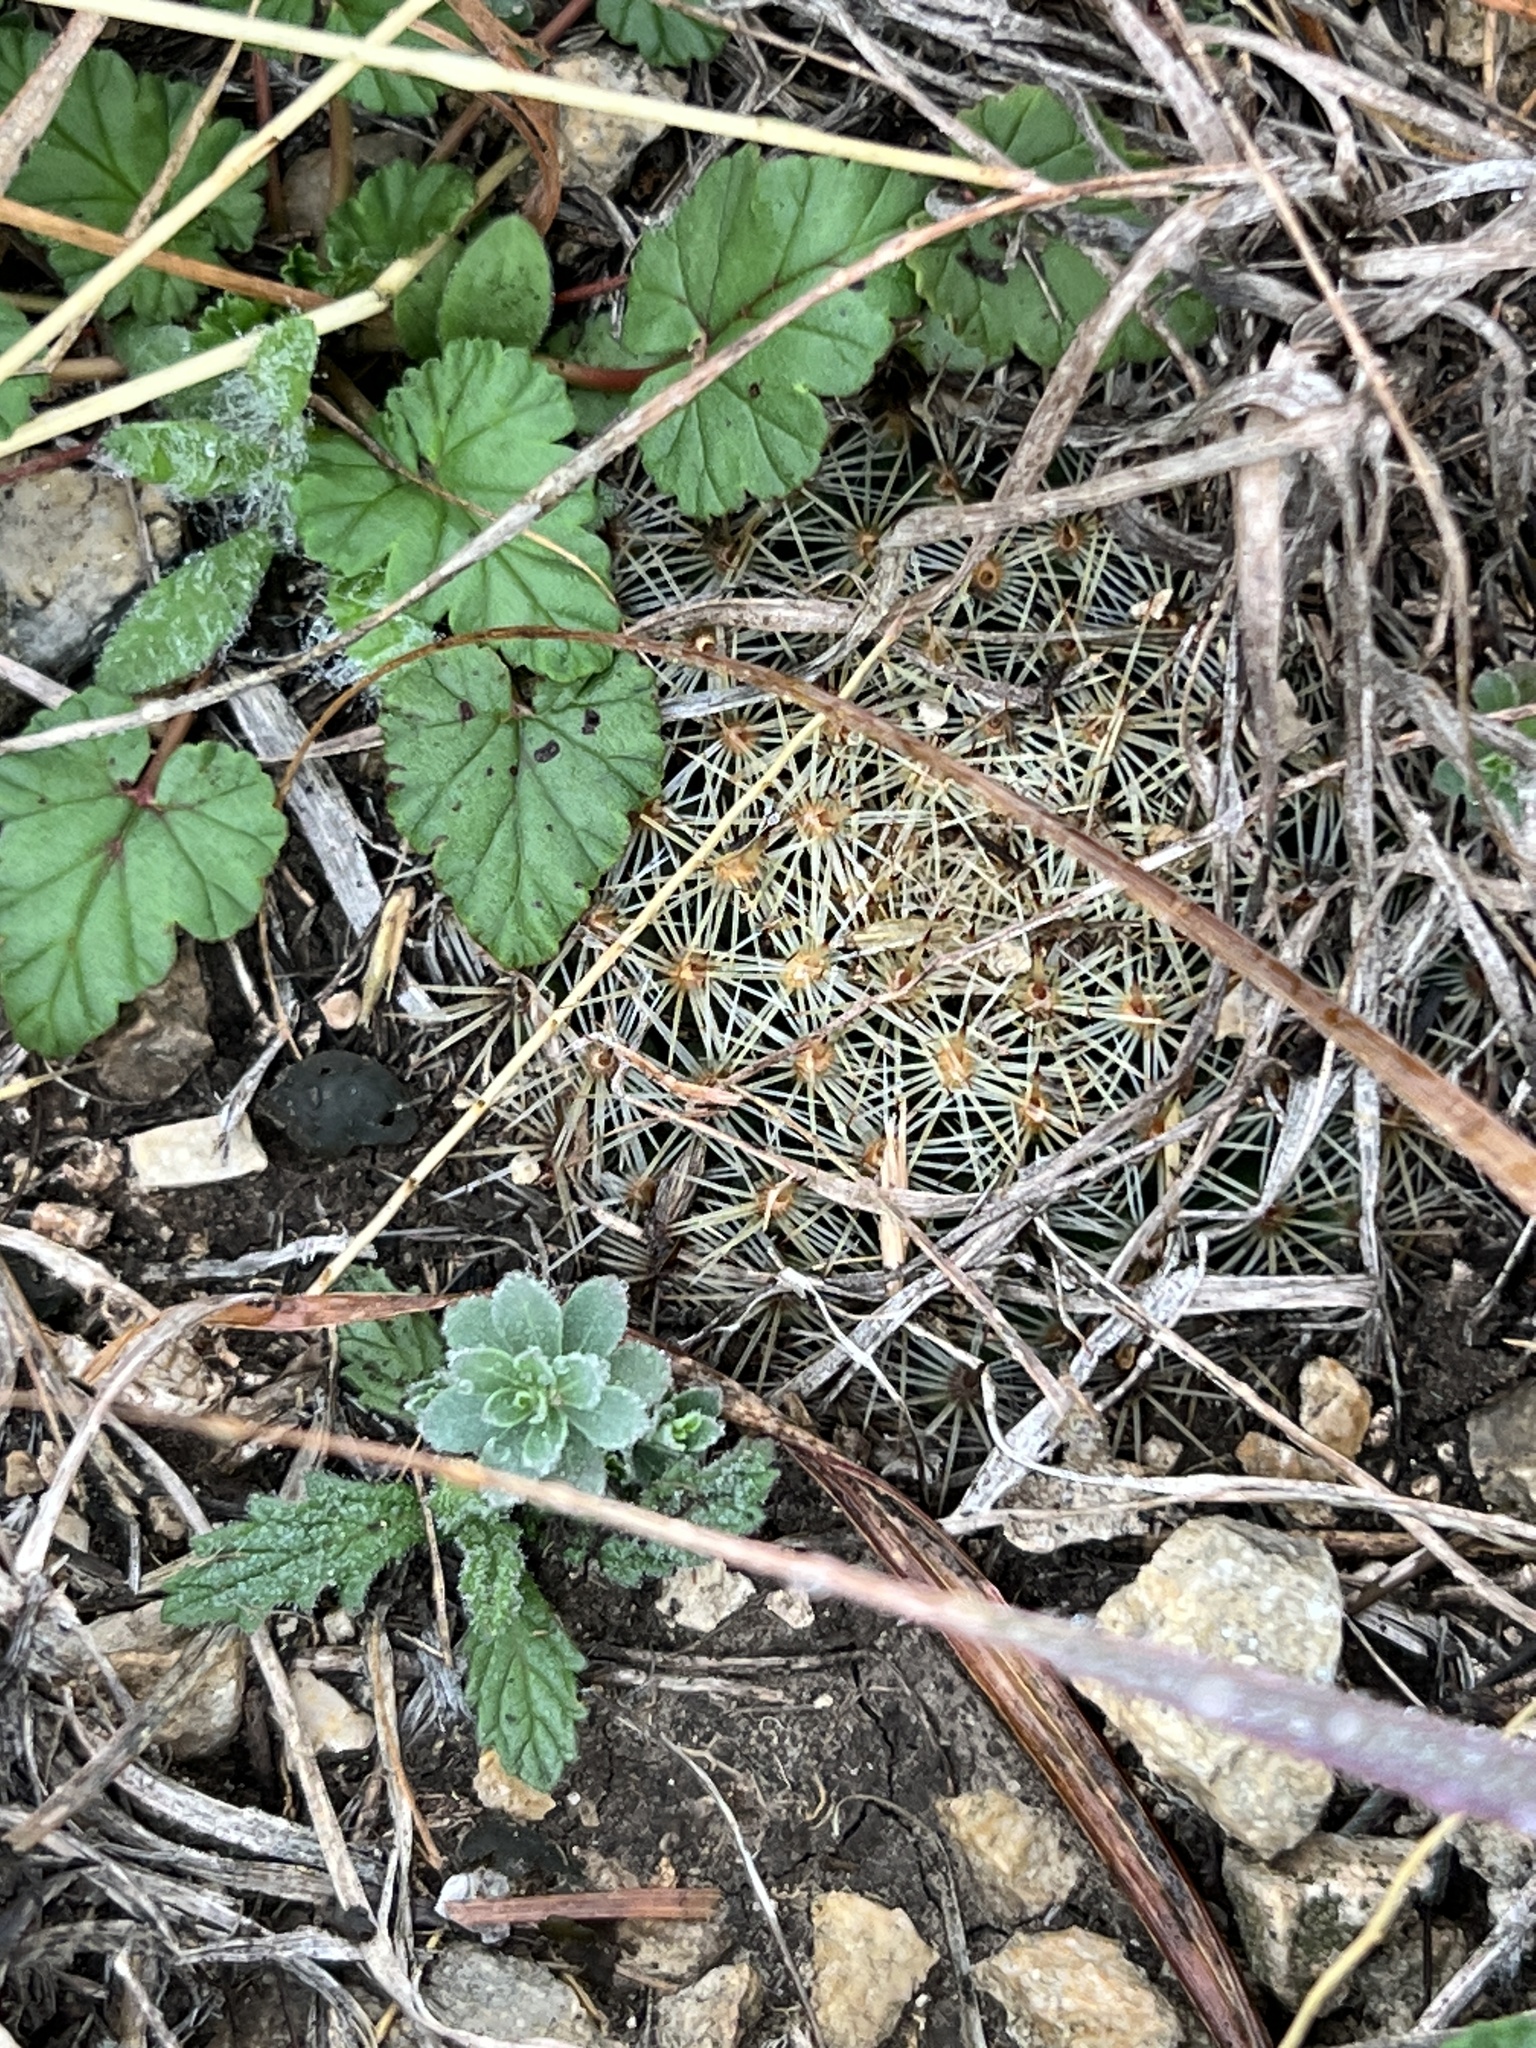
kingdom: Plantae
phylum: Tracheophyta
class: Magnoliopsida
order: Caryophyllales
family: Cactaceae
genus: Mammillaria
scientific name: Mammillaria heyderi
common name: Little nipple cactus
